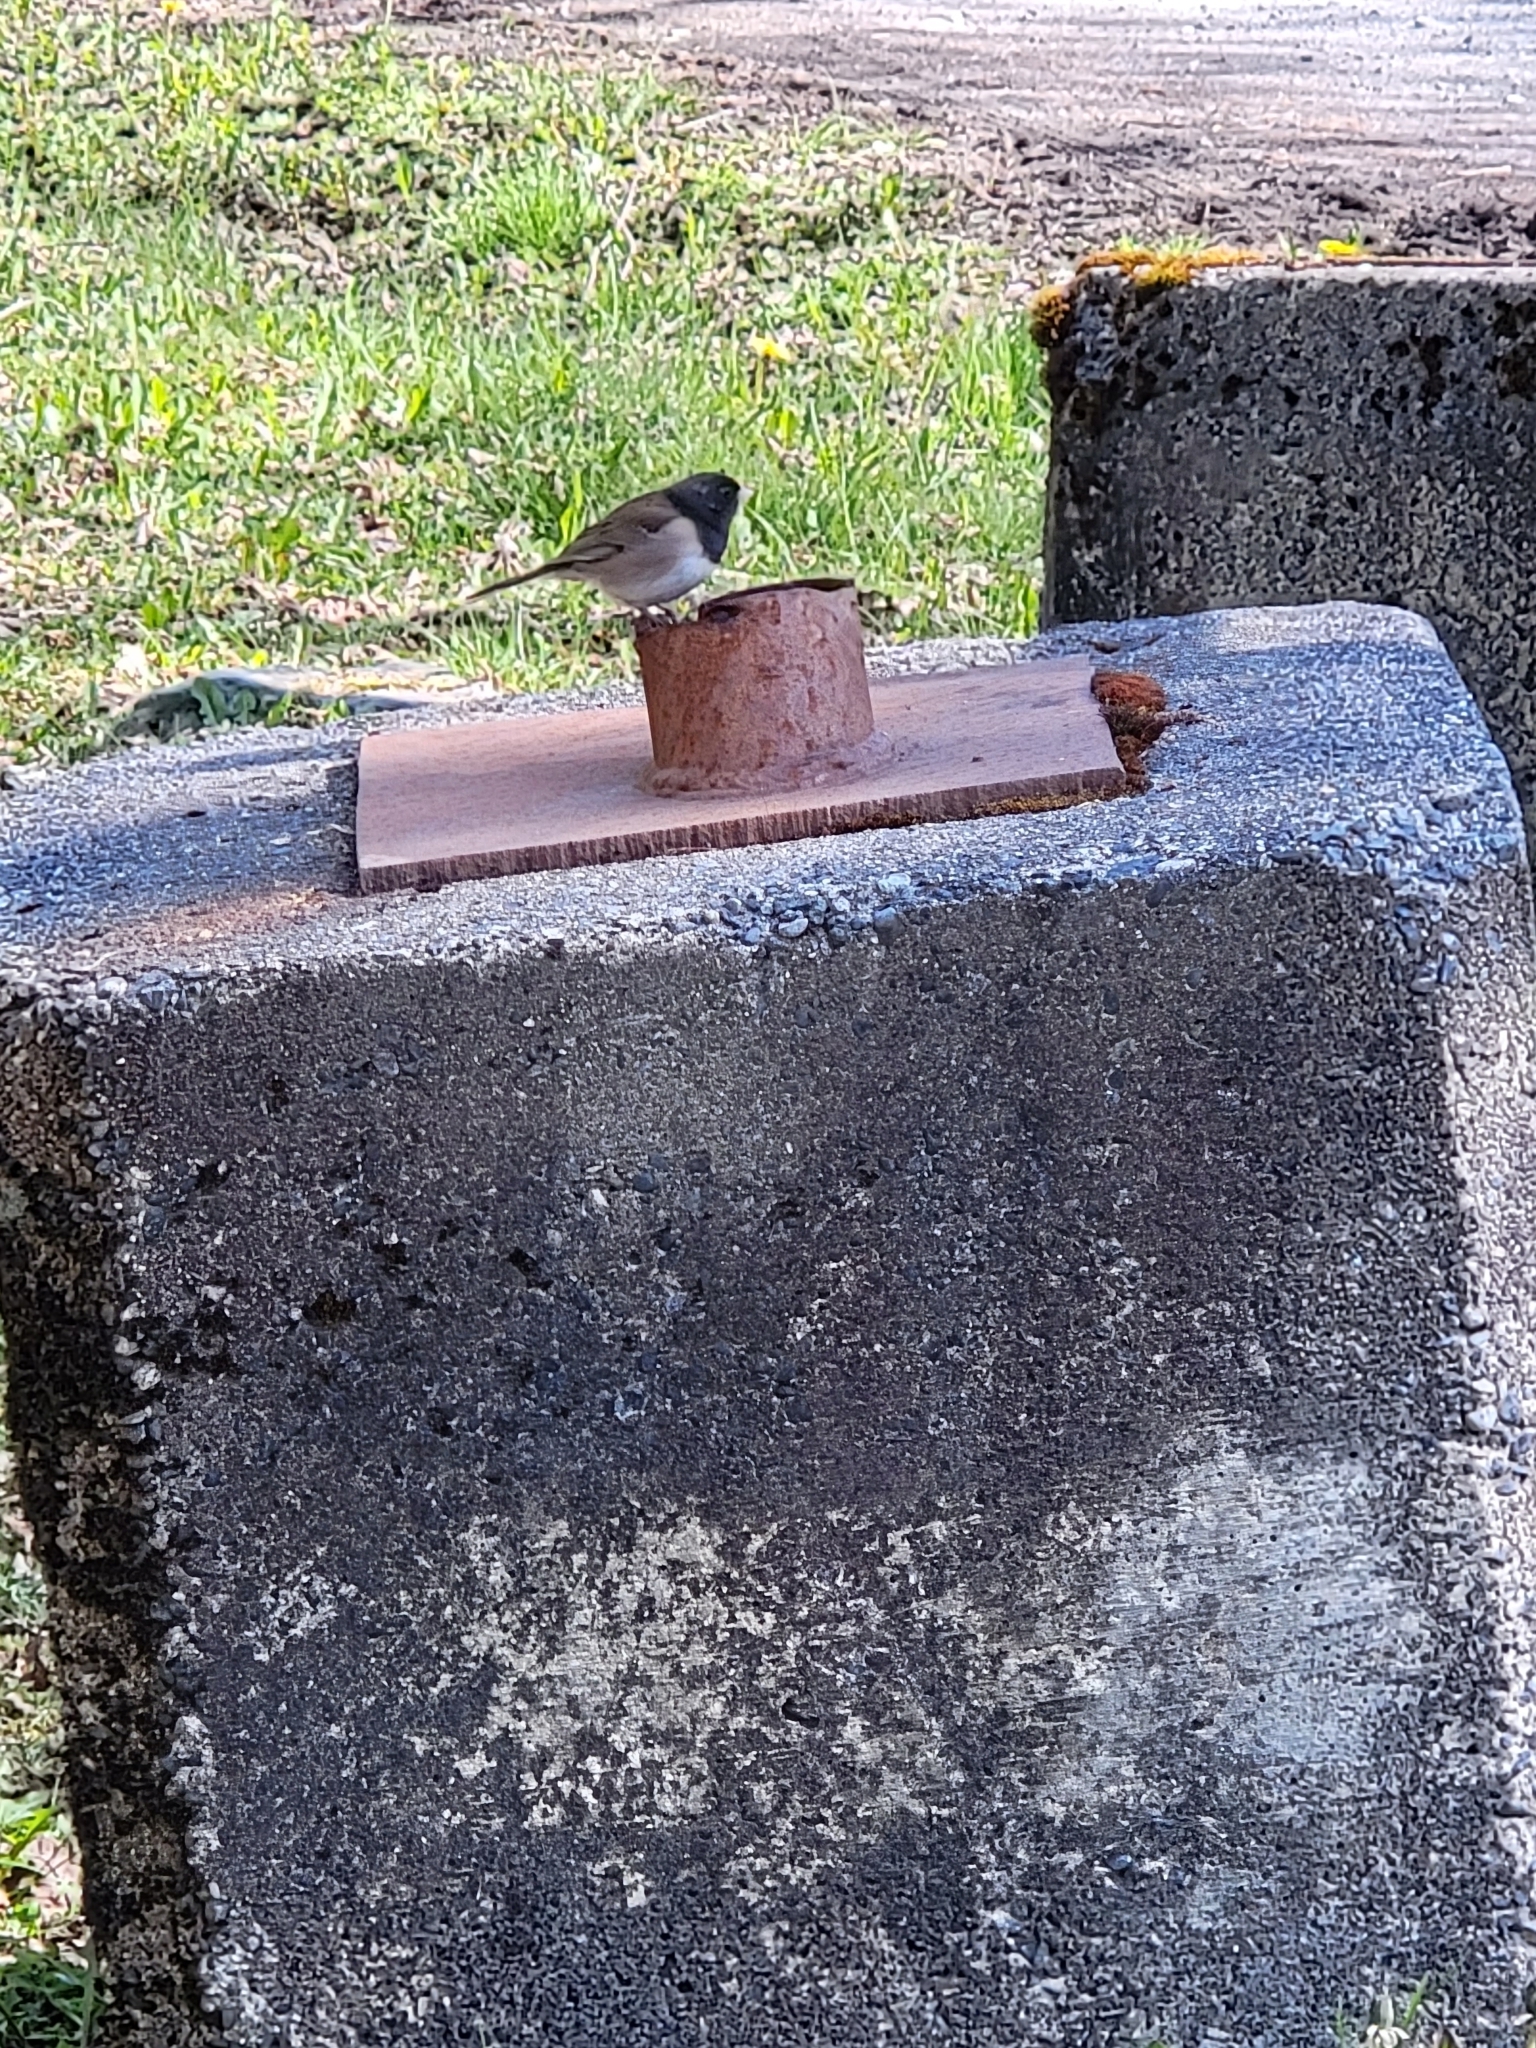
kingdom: Animalia
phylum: Chordata
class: Aves
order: Passeriformes
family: Passerellidae
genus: Junco
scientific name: Junco hyemalis
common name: Dark-eyed junco
